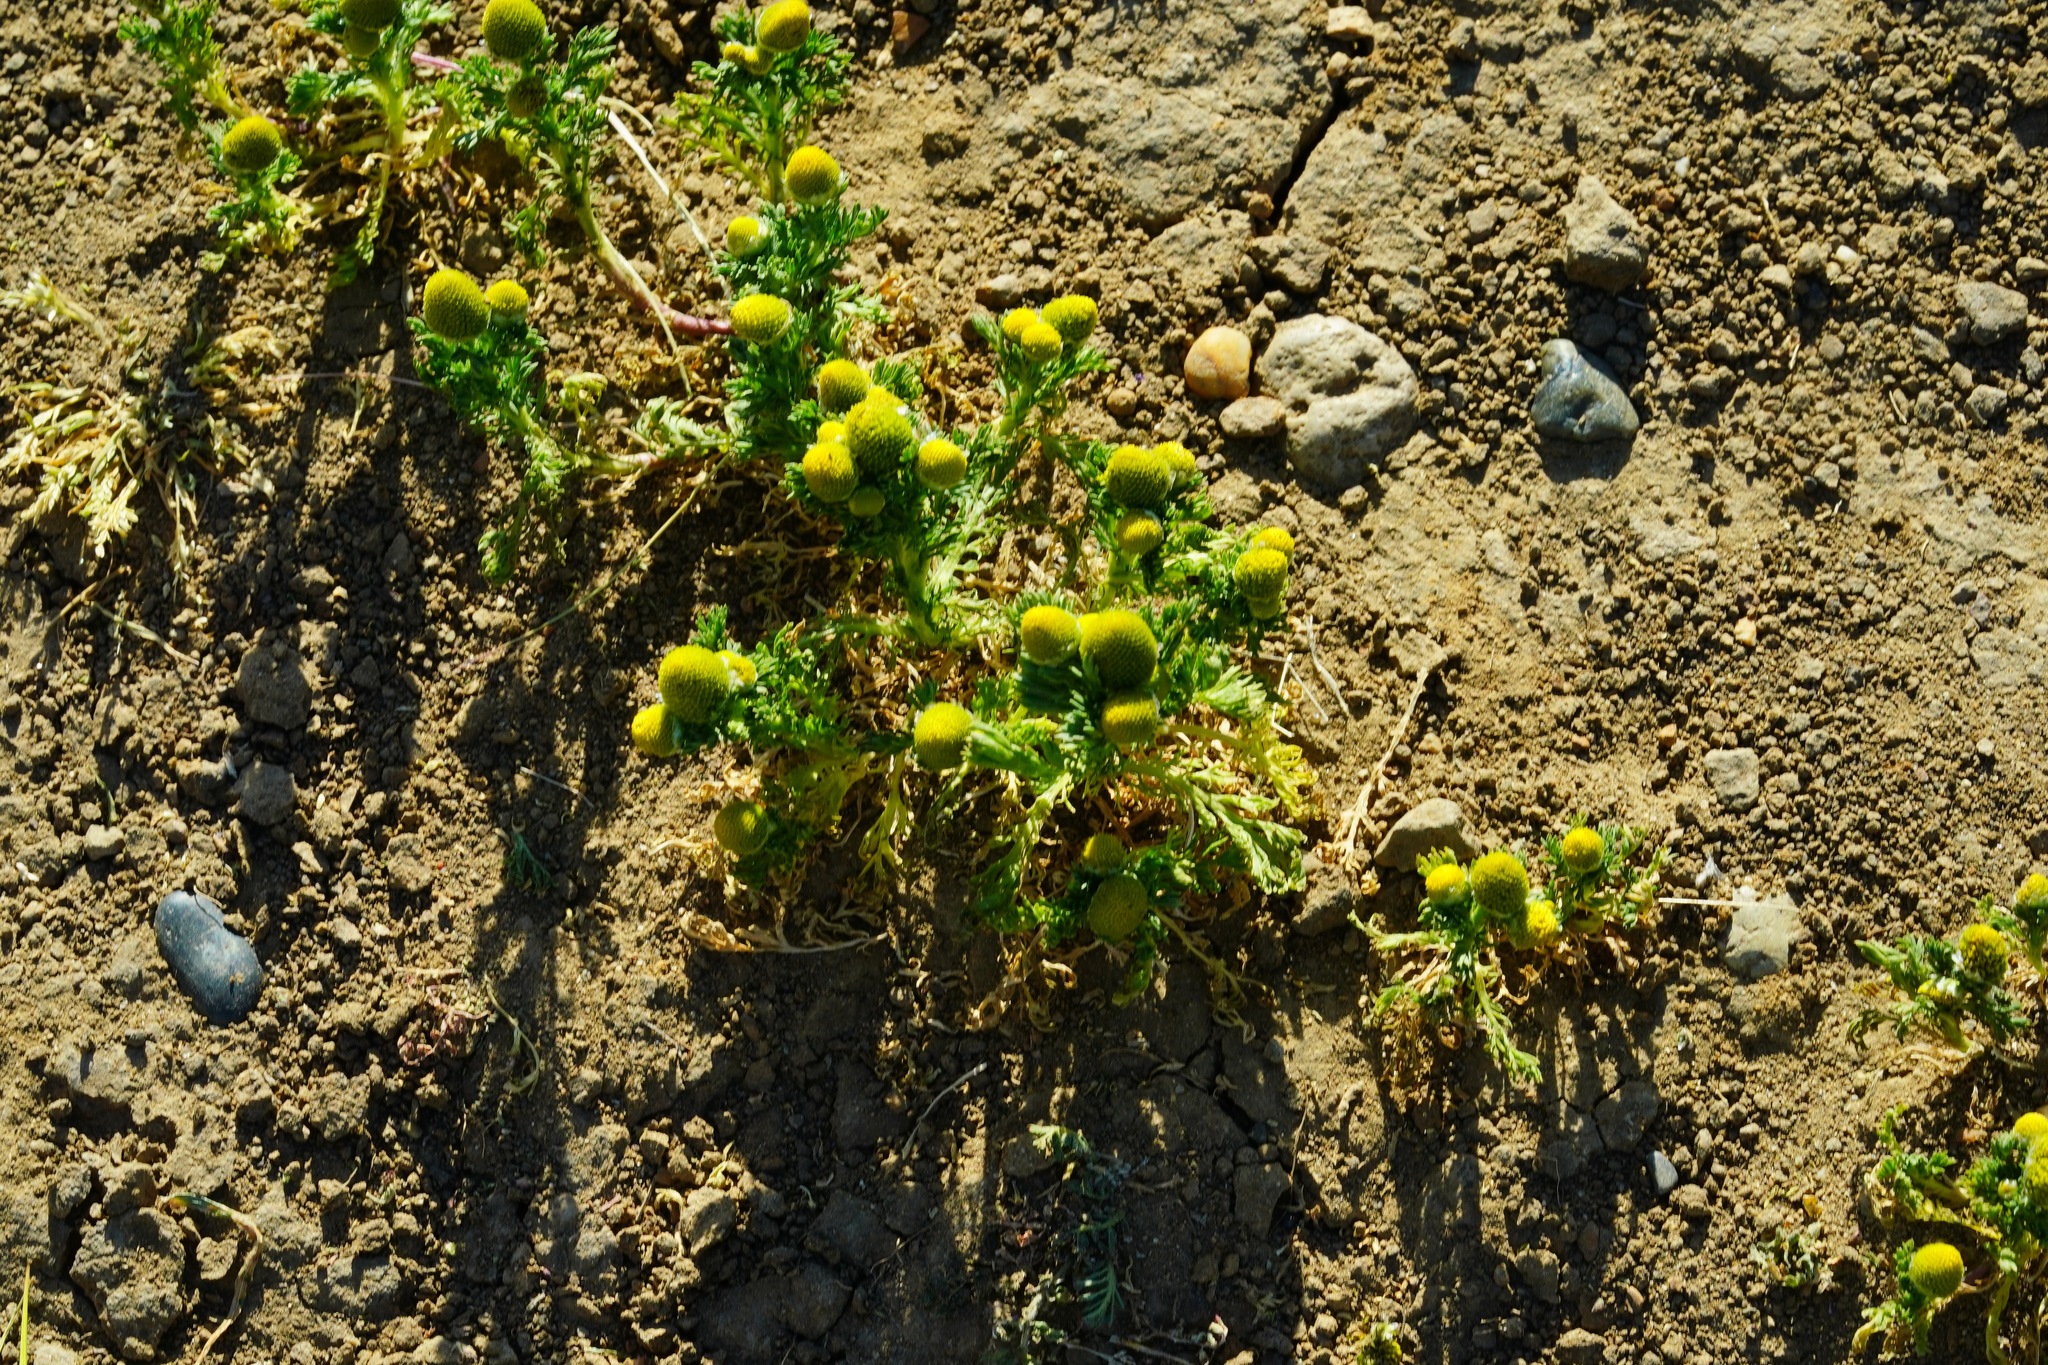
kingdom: Plantae
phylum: Tracheophyta
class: Magnoliopsida
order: Asterales
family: Asteraceae
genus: Matricaria
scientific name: Matricaria discoidea
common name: Disc mayweed
